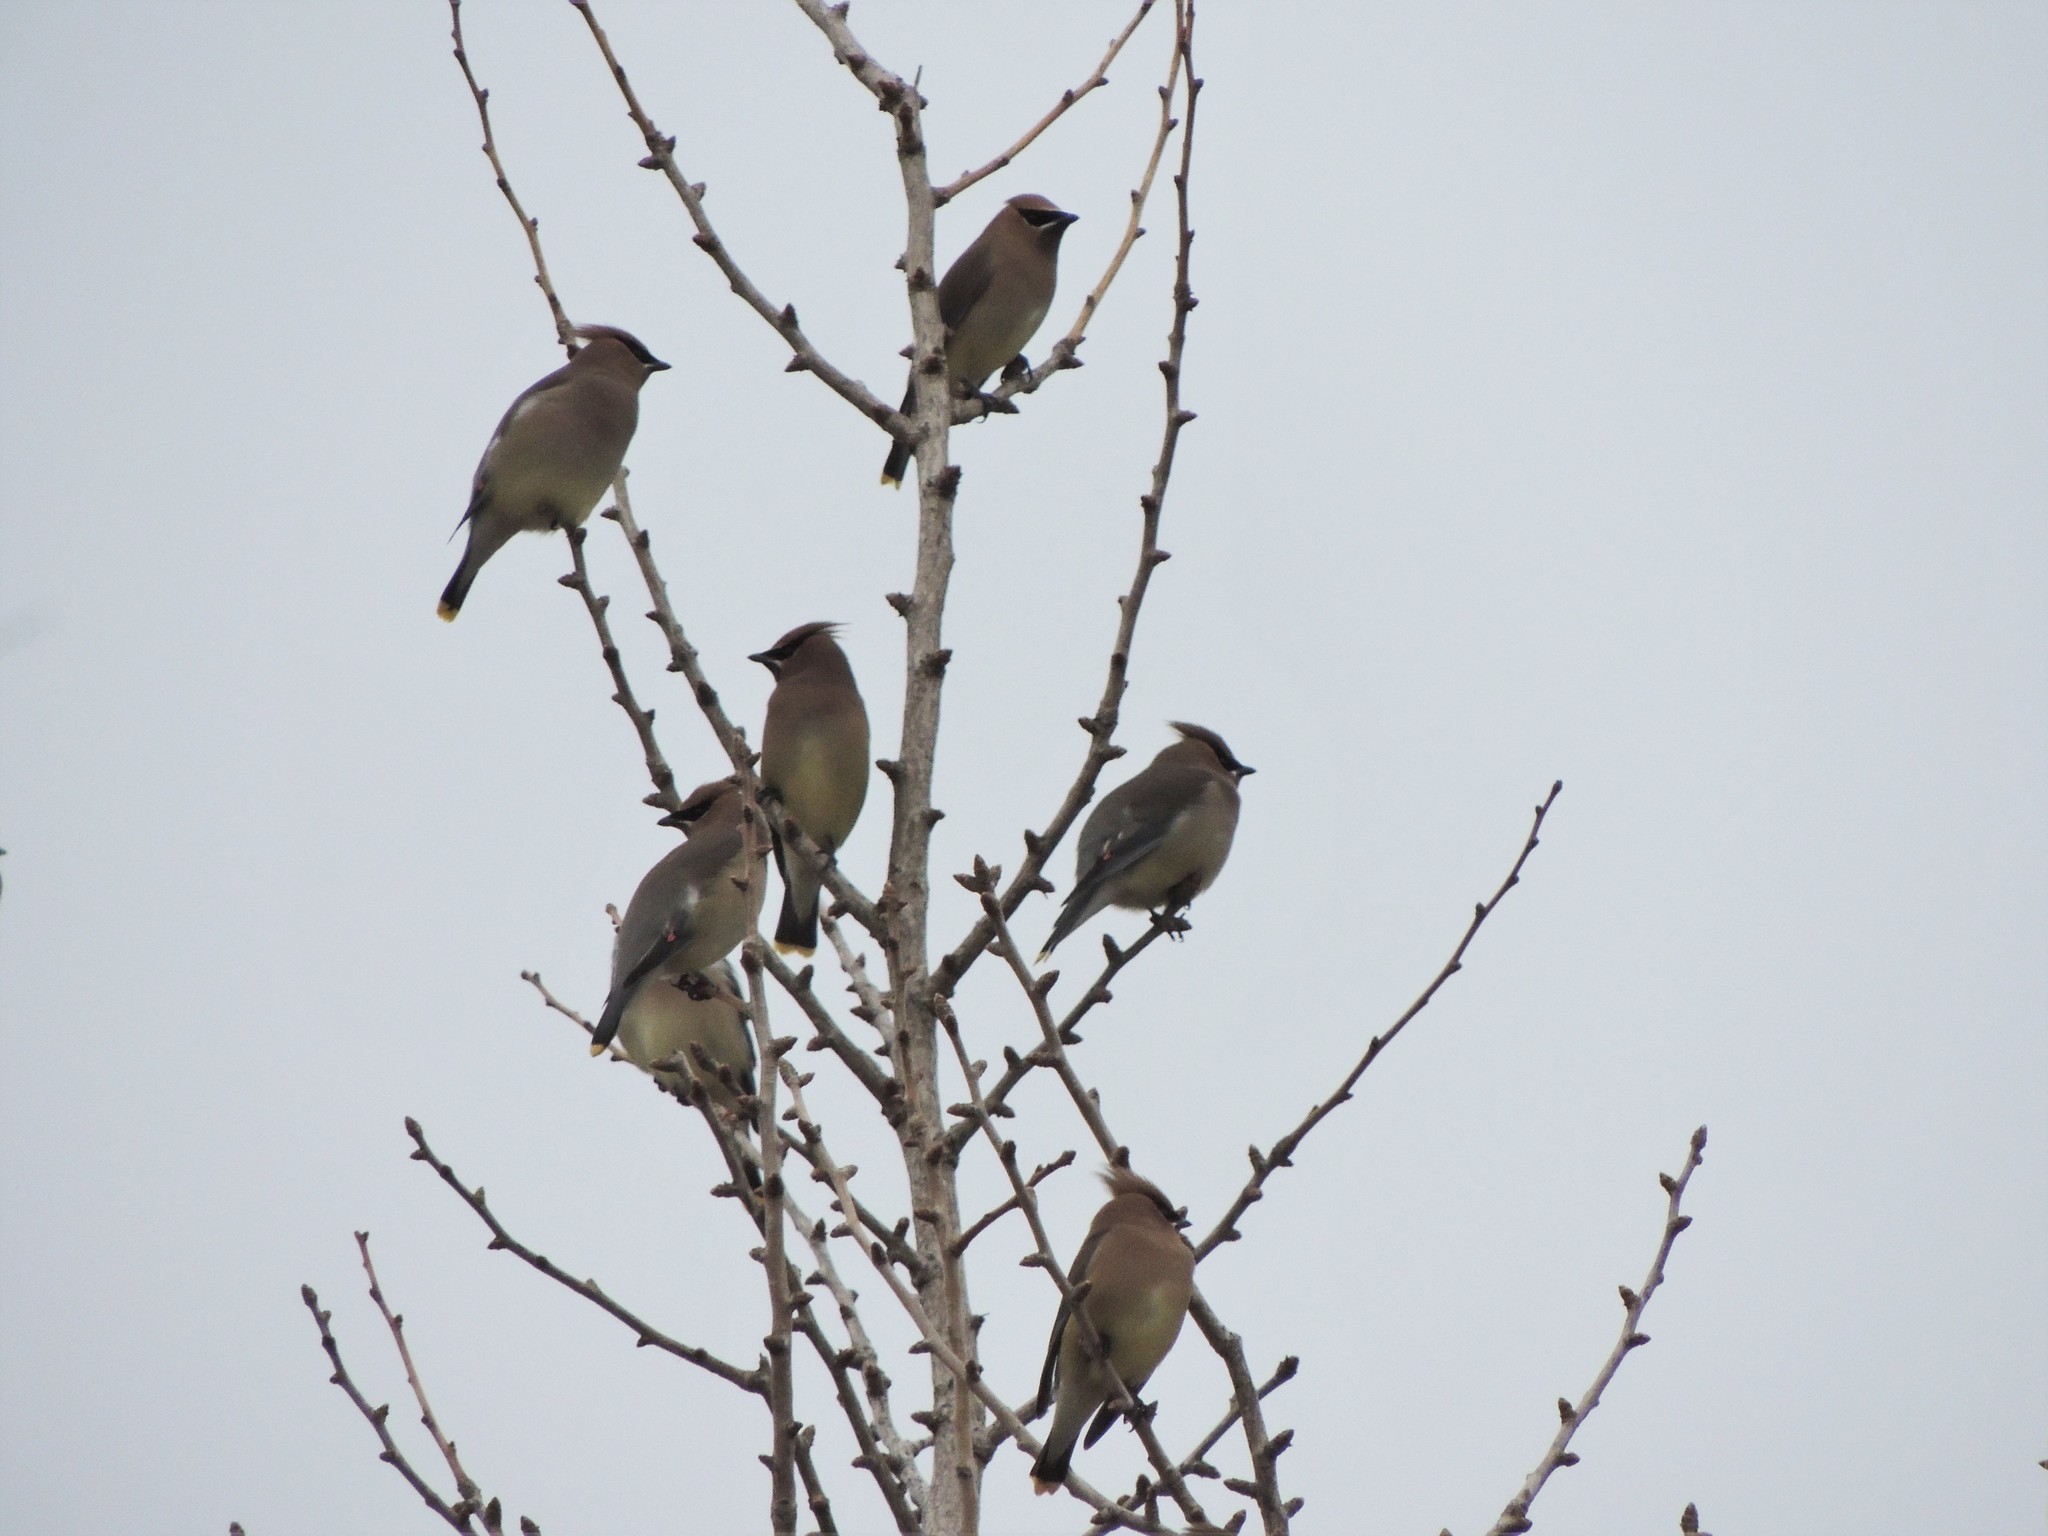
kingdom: Animalia
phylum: Chordata
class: Aves
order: Passeriformes
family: Bombycillidae
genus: Bombycilla
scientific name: Bombycilla cedrorum
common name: Cedar waxwing
